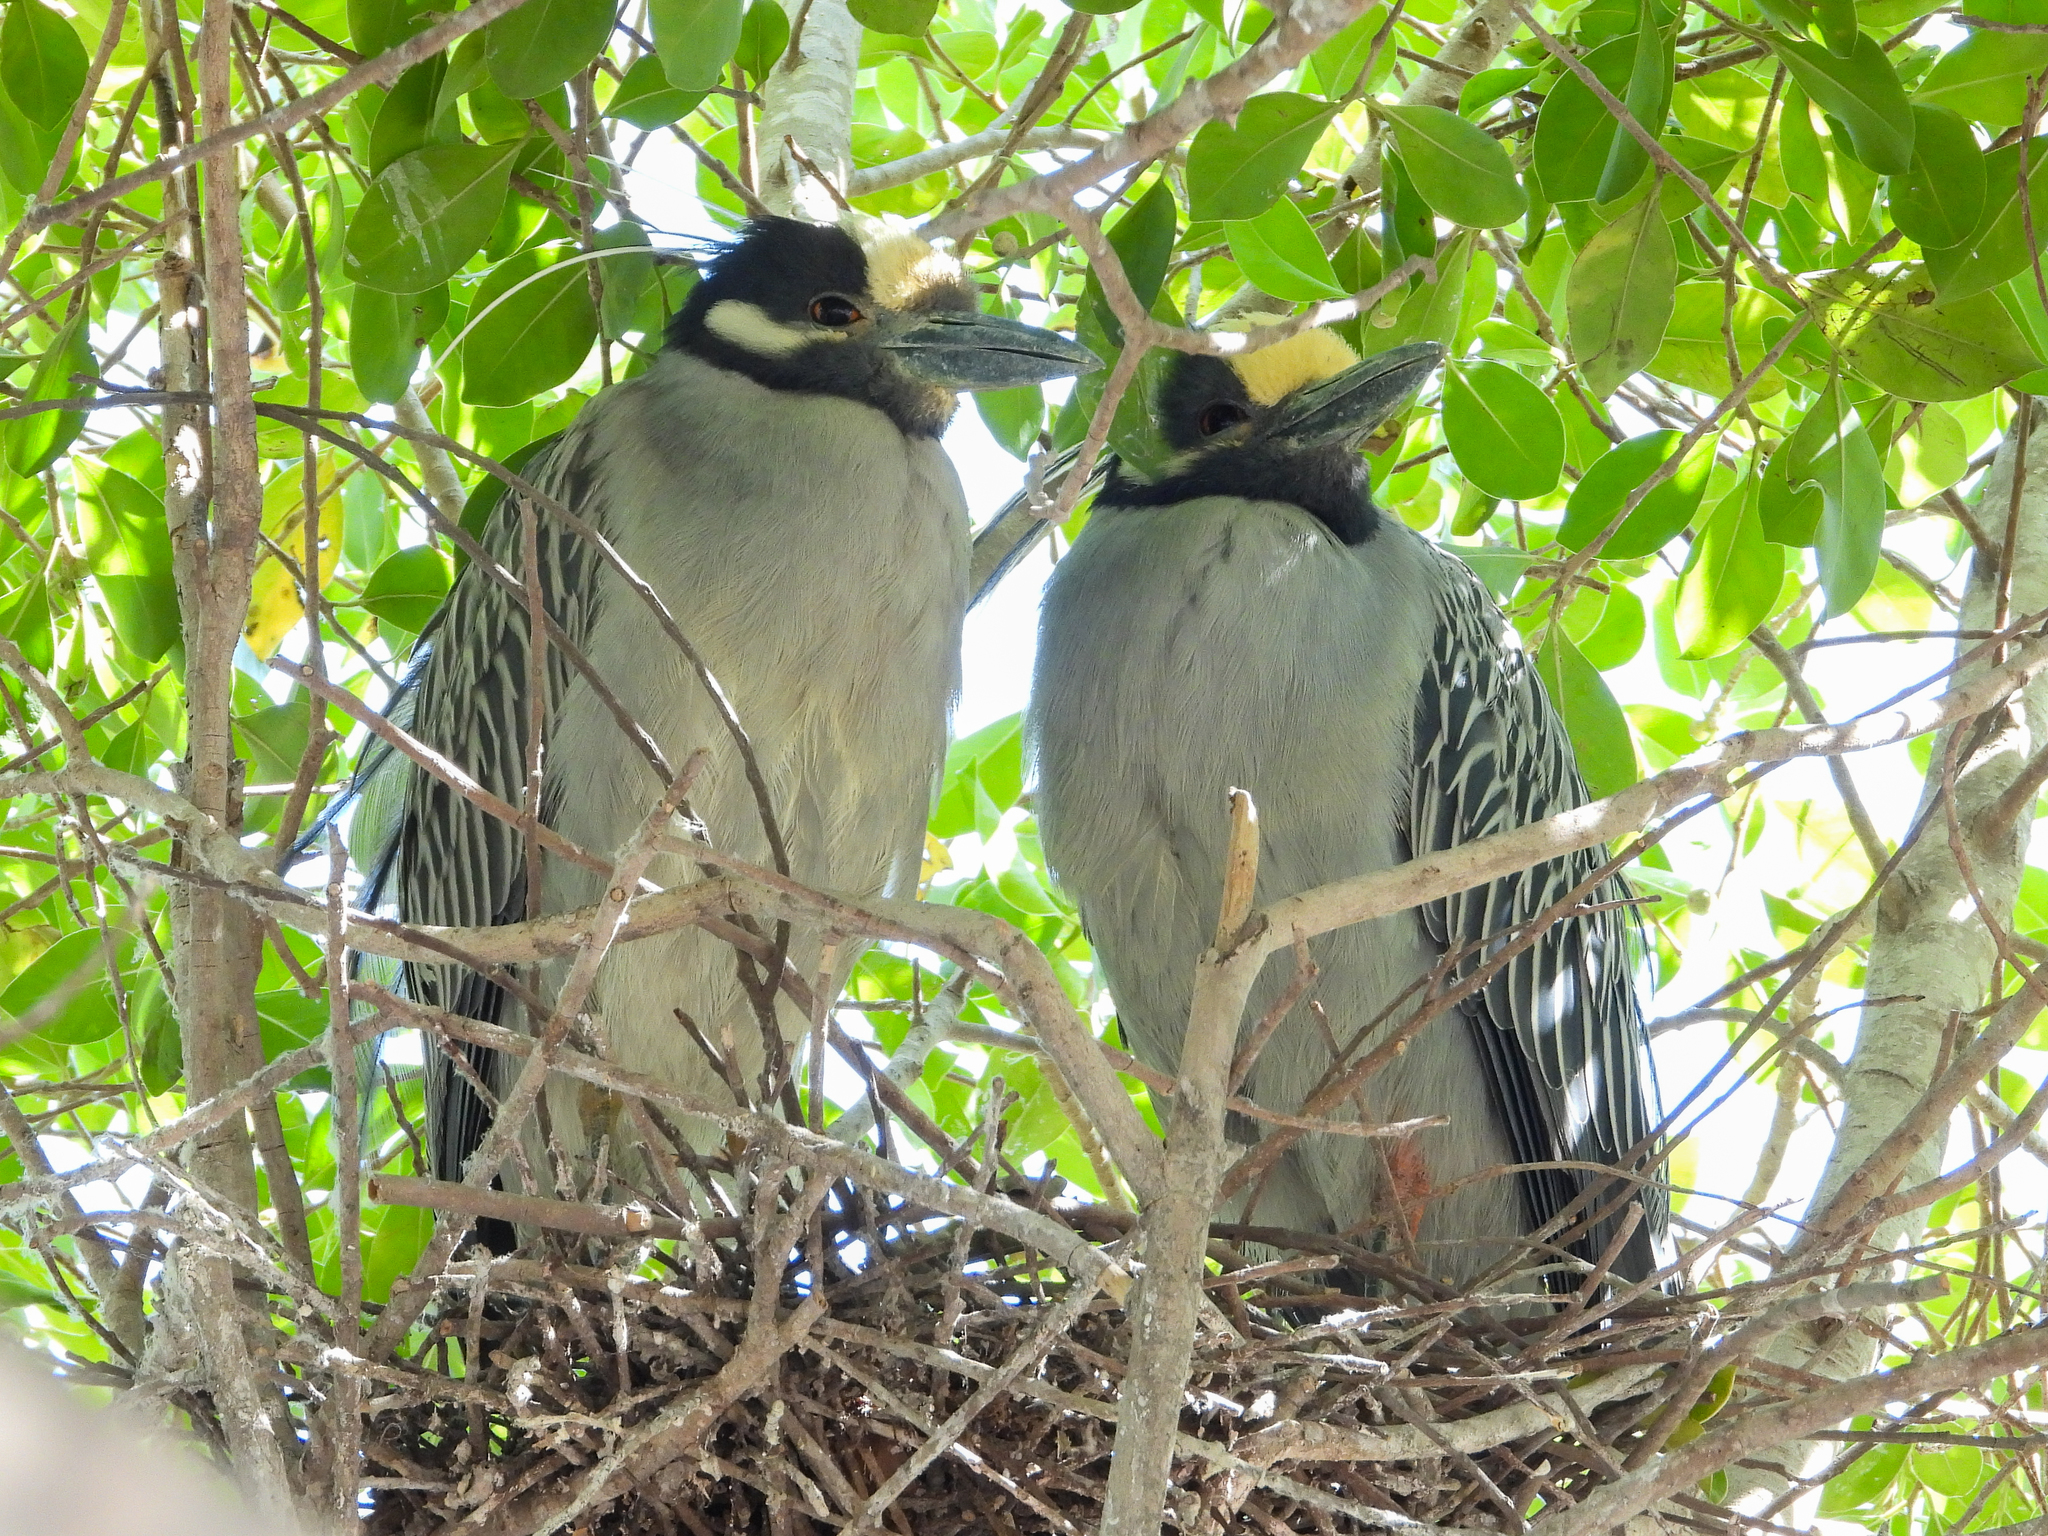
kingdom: Animalia
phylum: Chordata
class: Aves
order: Pelecaniformes
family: Ardeidae
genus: Nyctanassa
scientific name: Nyctanassa violacea
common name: Yellow-crowned night heron
